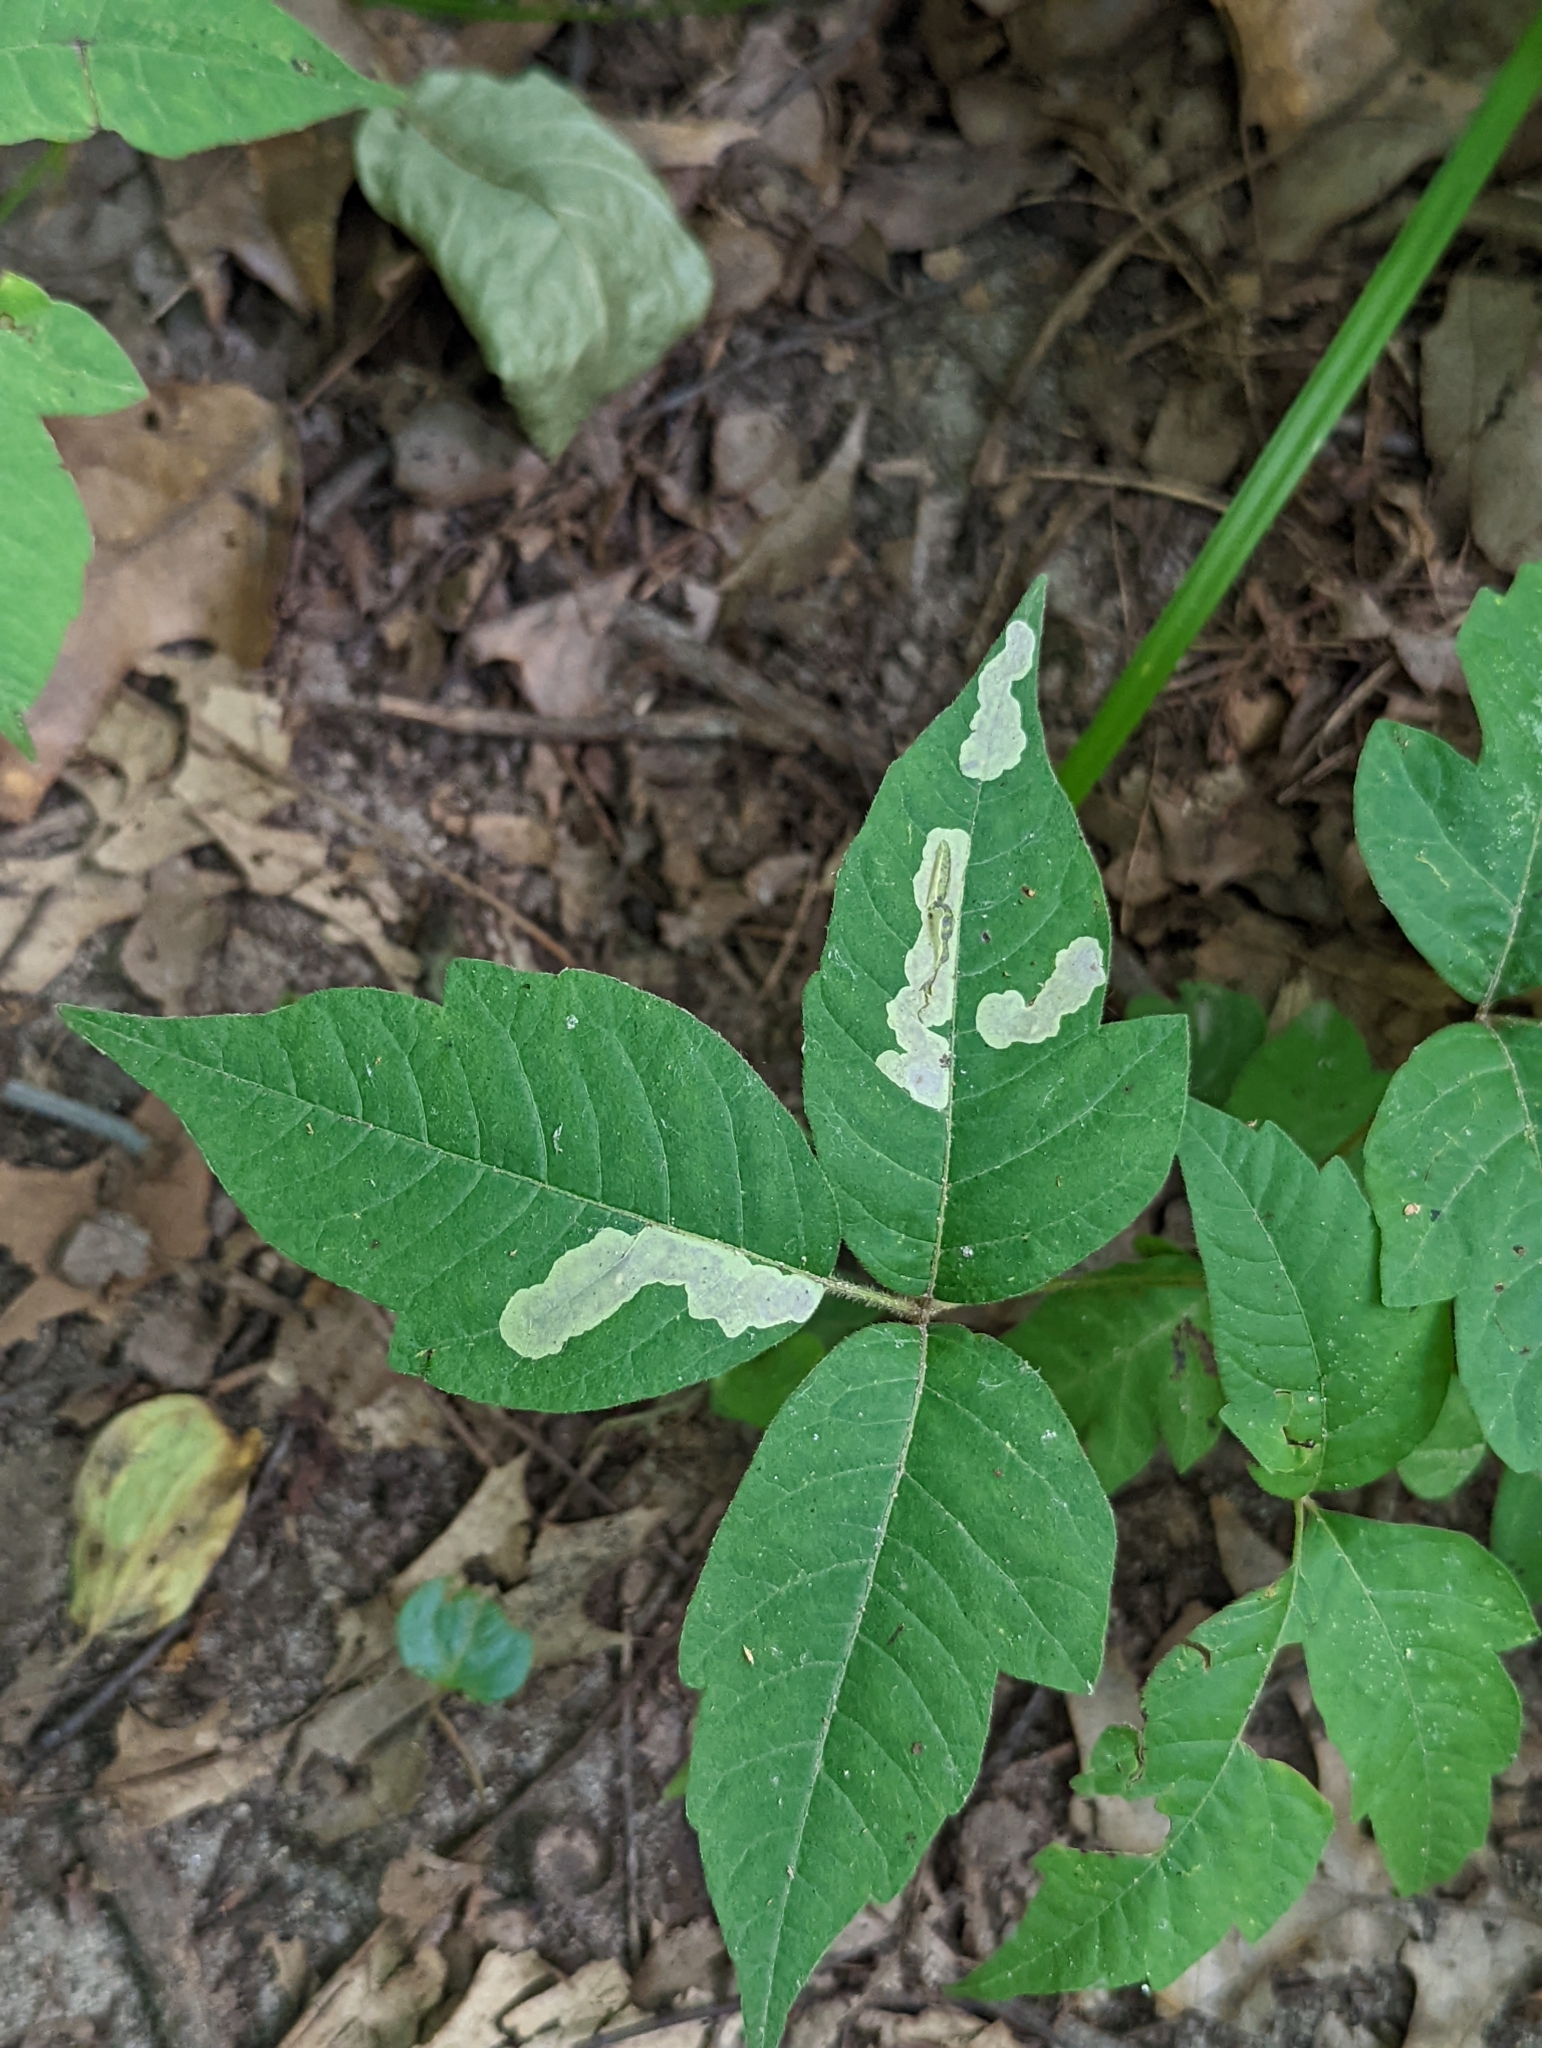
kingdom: Animalia
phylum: Arthropoda
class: Insecta
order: Lepidoptera
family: Gracillariidae
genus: Cameraria
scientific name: Cameraria guttifinitella
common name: Poison ivy leaf-miner moth
